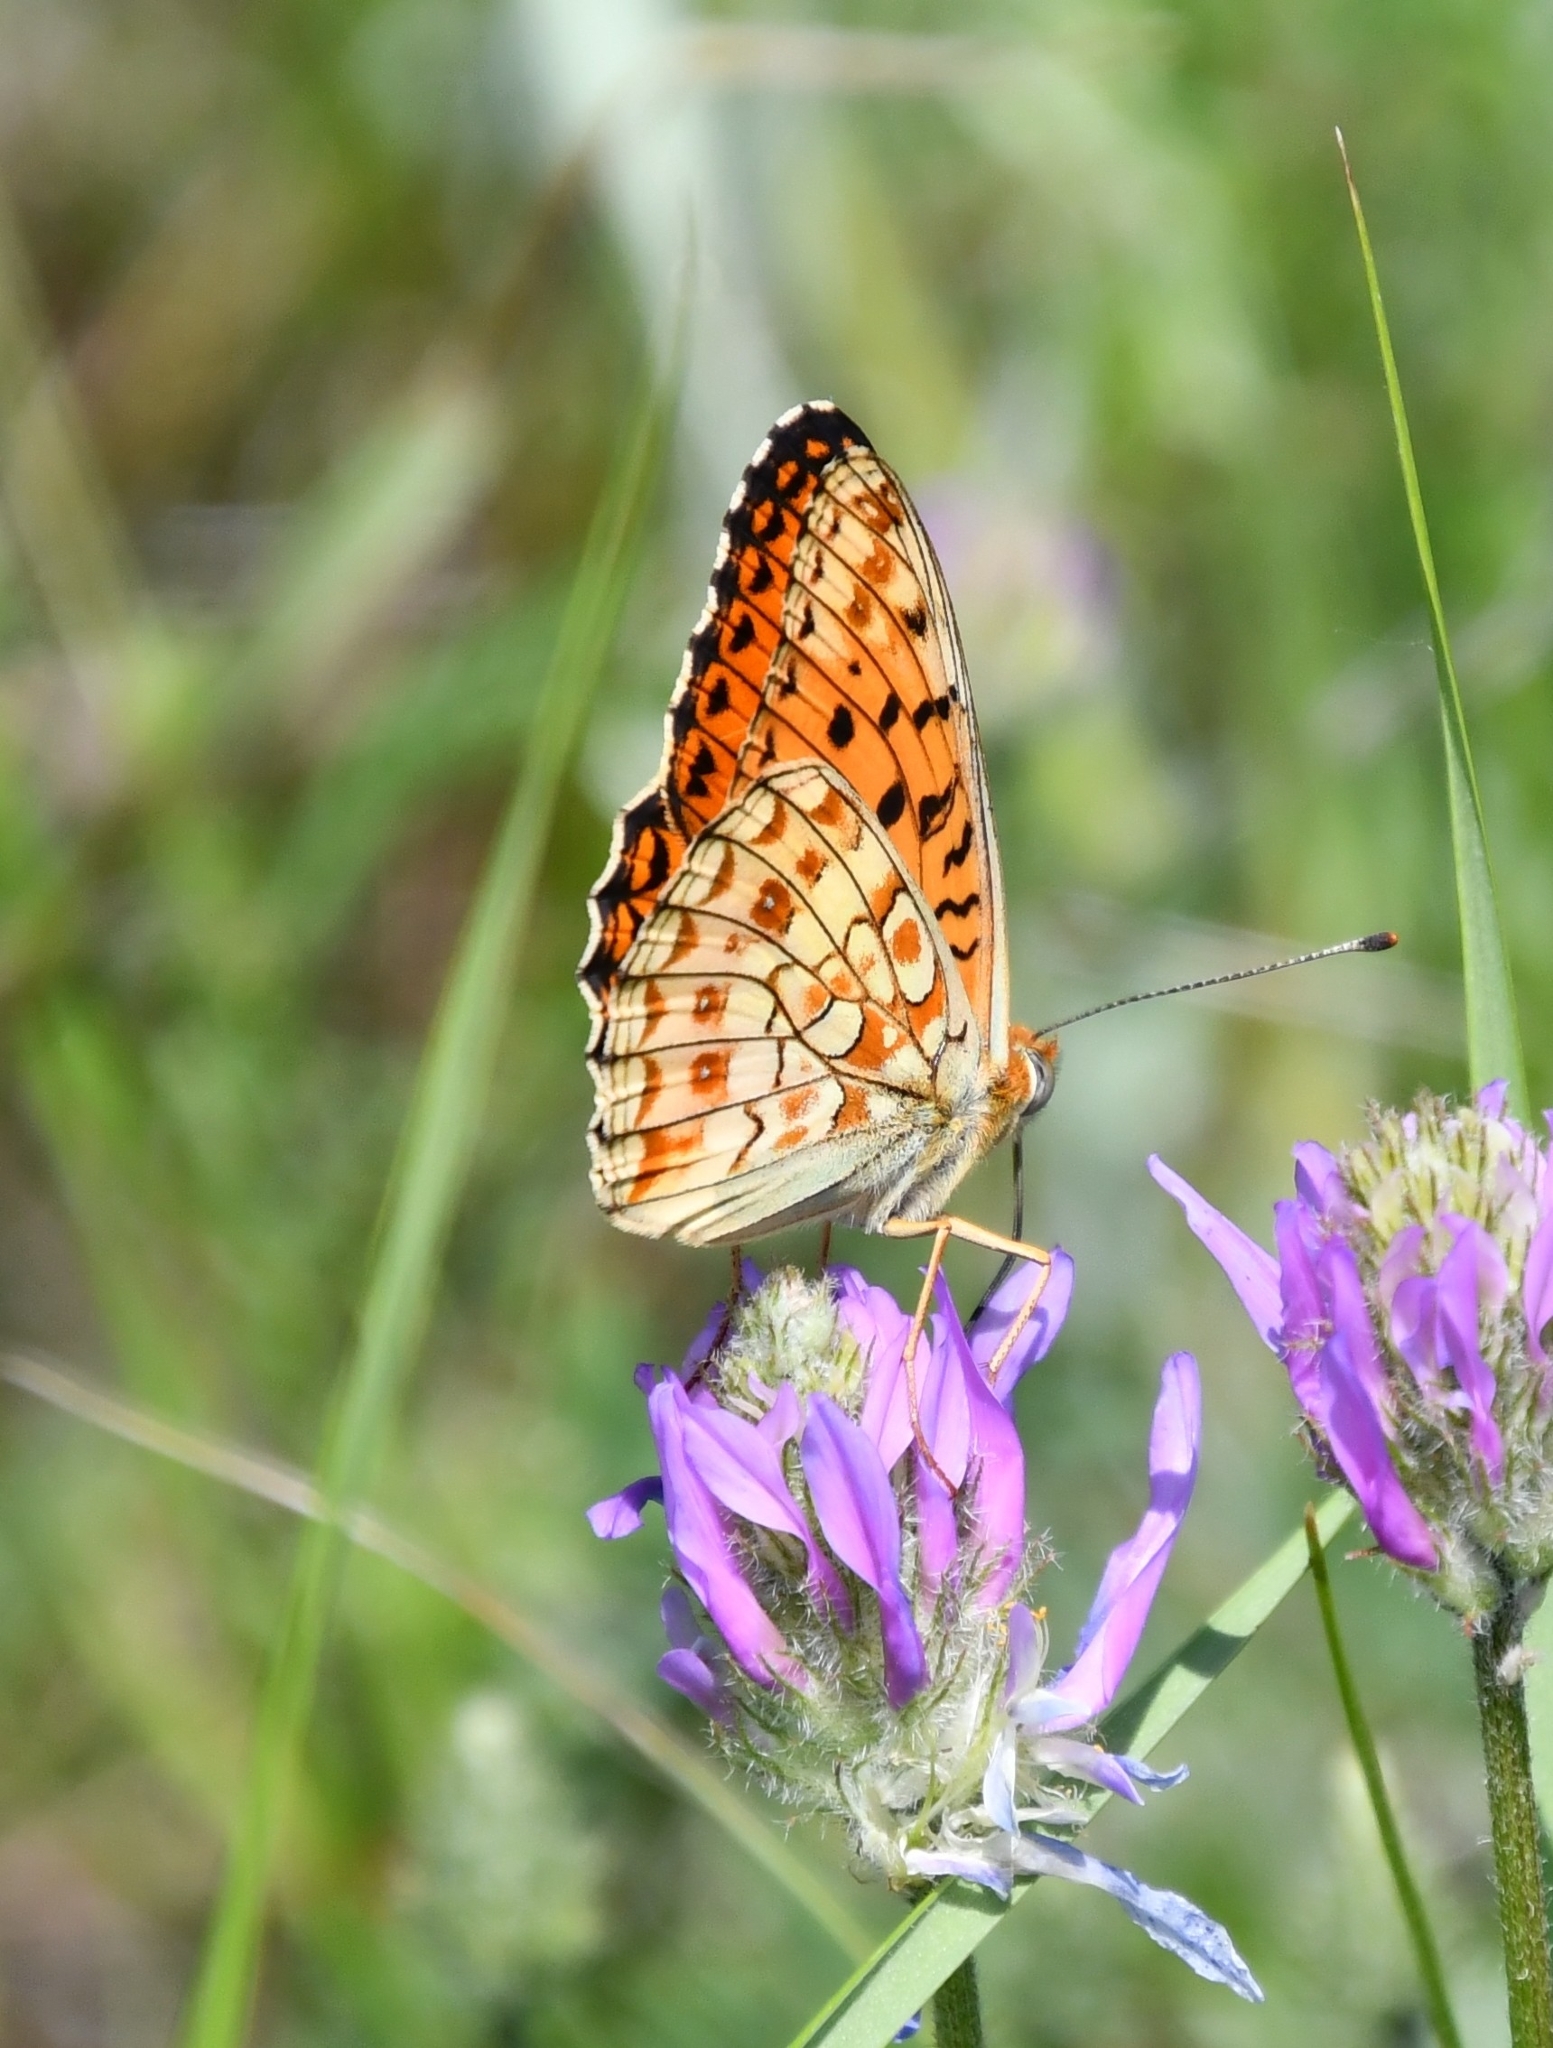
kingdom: Animalia
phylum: Arthropoda
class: Insecta
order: Lepidoptera
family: Nymphalidae
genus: Fabriciana
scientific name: Fabriciana niobe
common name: Niobe fritillary
